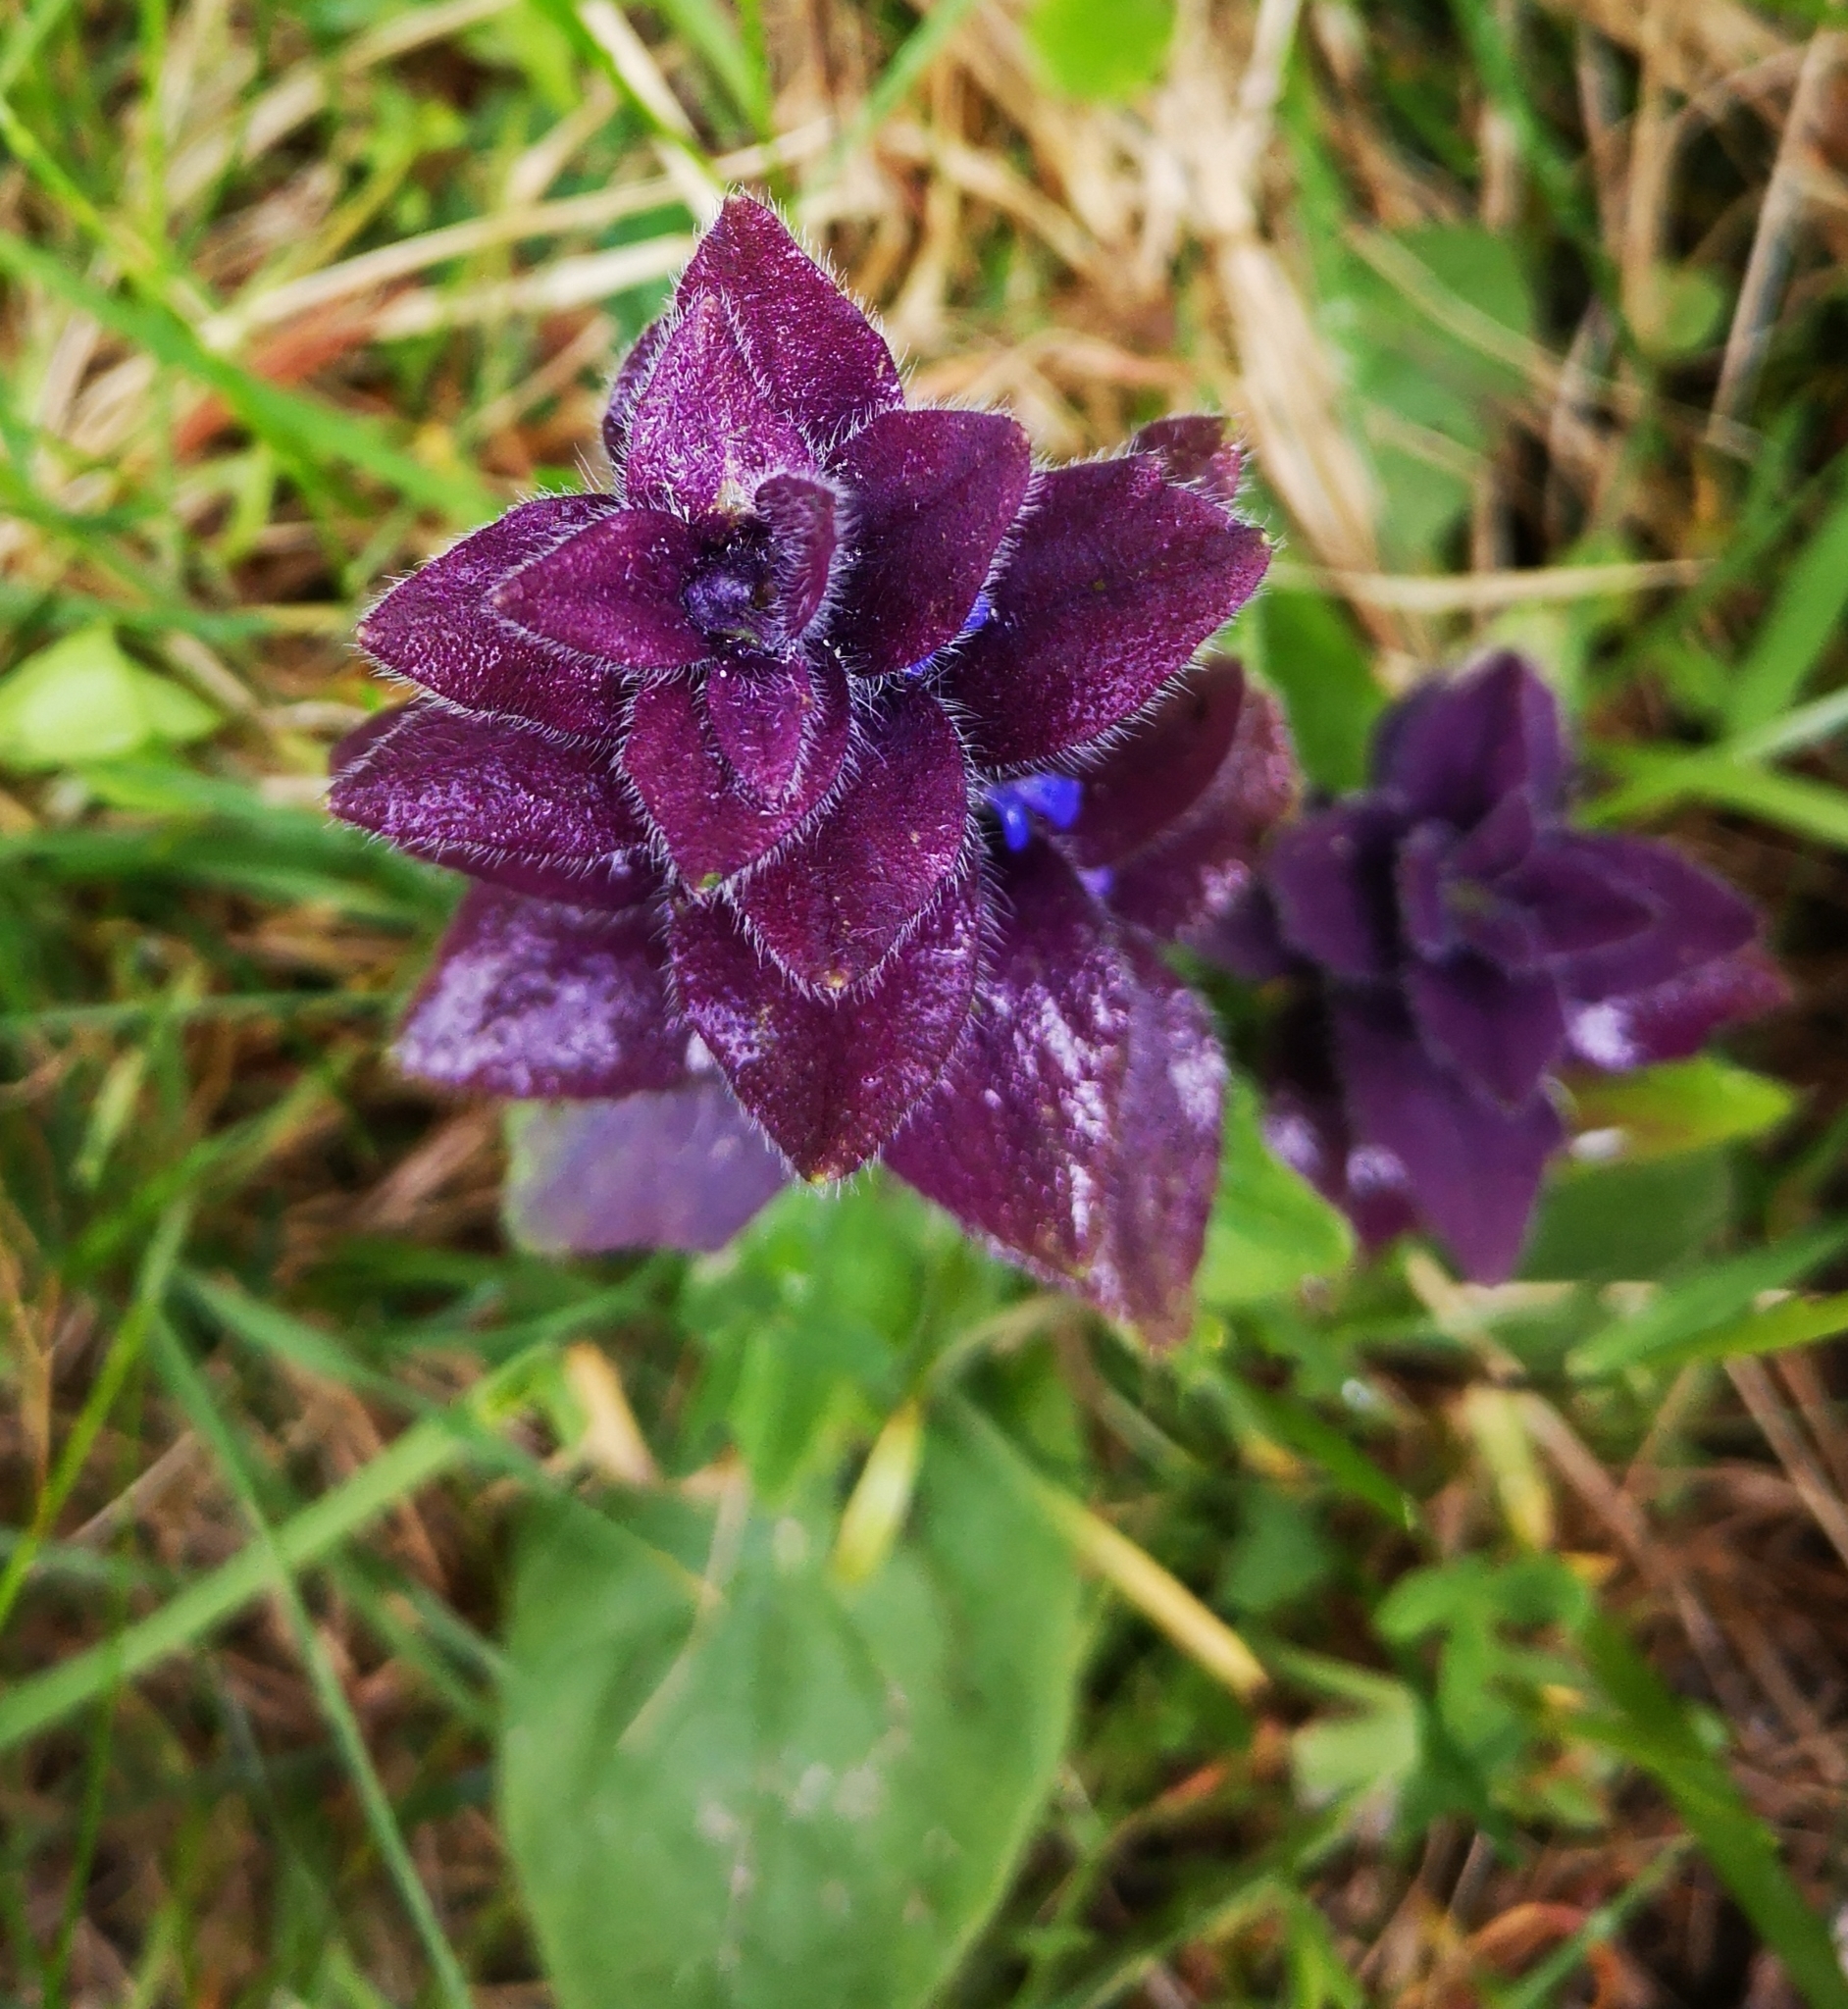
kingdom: Plantae
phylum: Tracheophyta
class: Magnoliopsida
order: Lamiales
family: Lamiaceae
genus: Ajuga
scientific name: Ajuga pyramidalis
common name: Pyramid bugle
